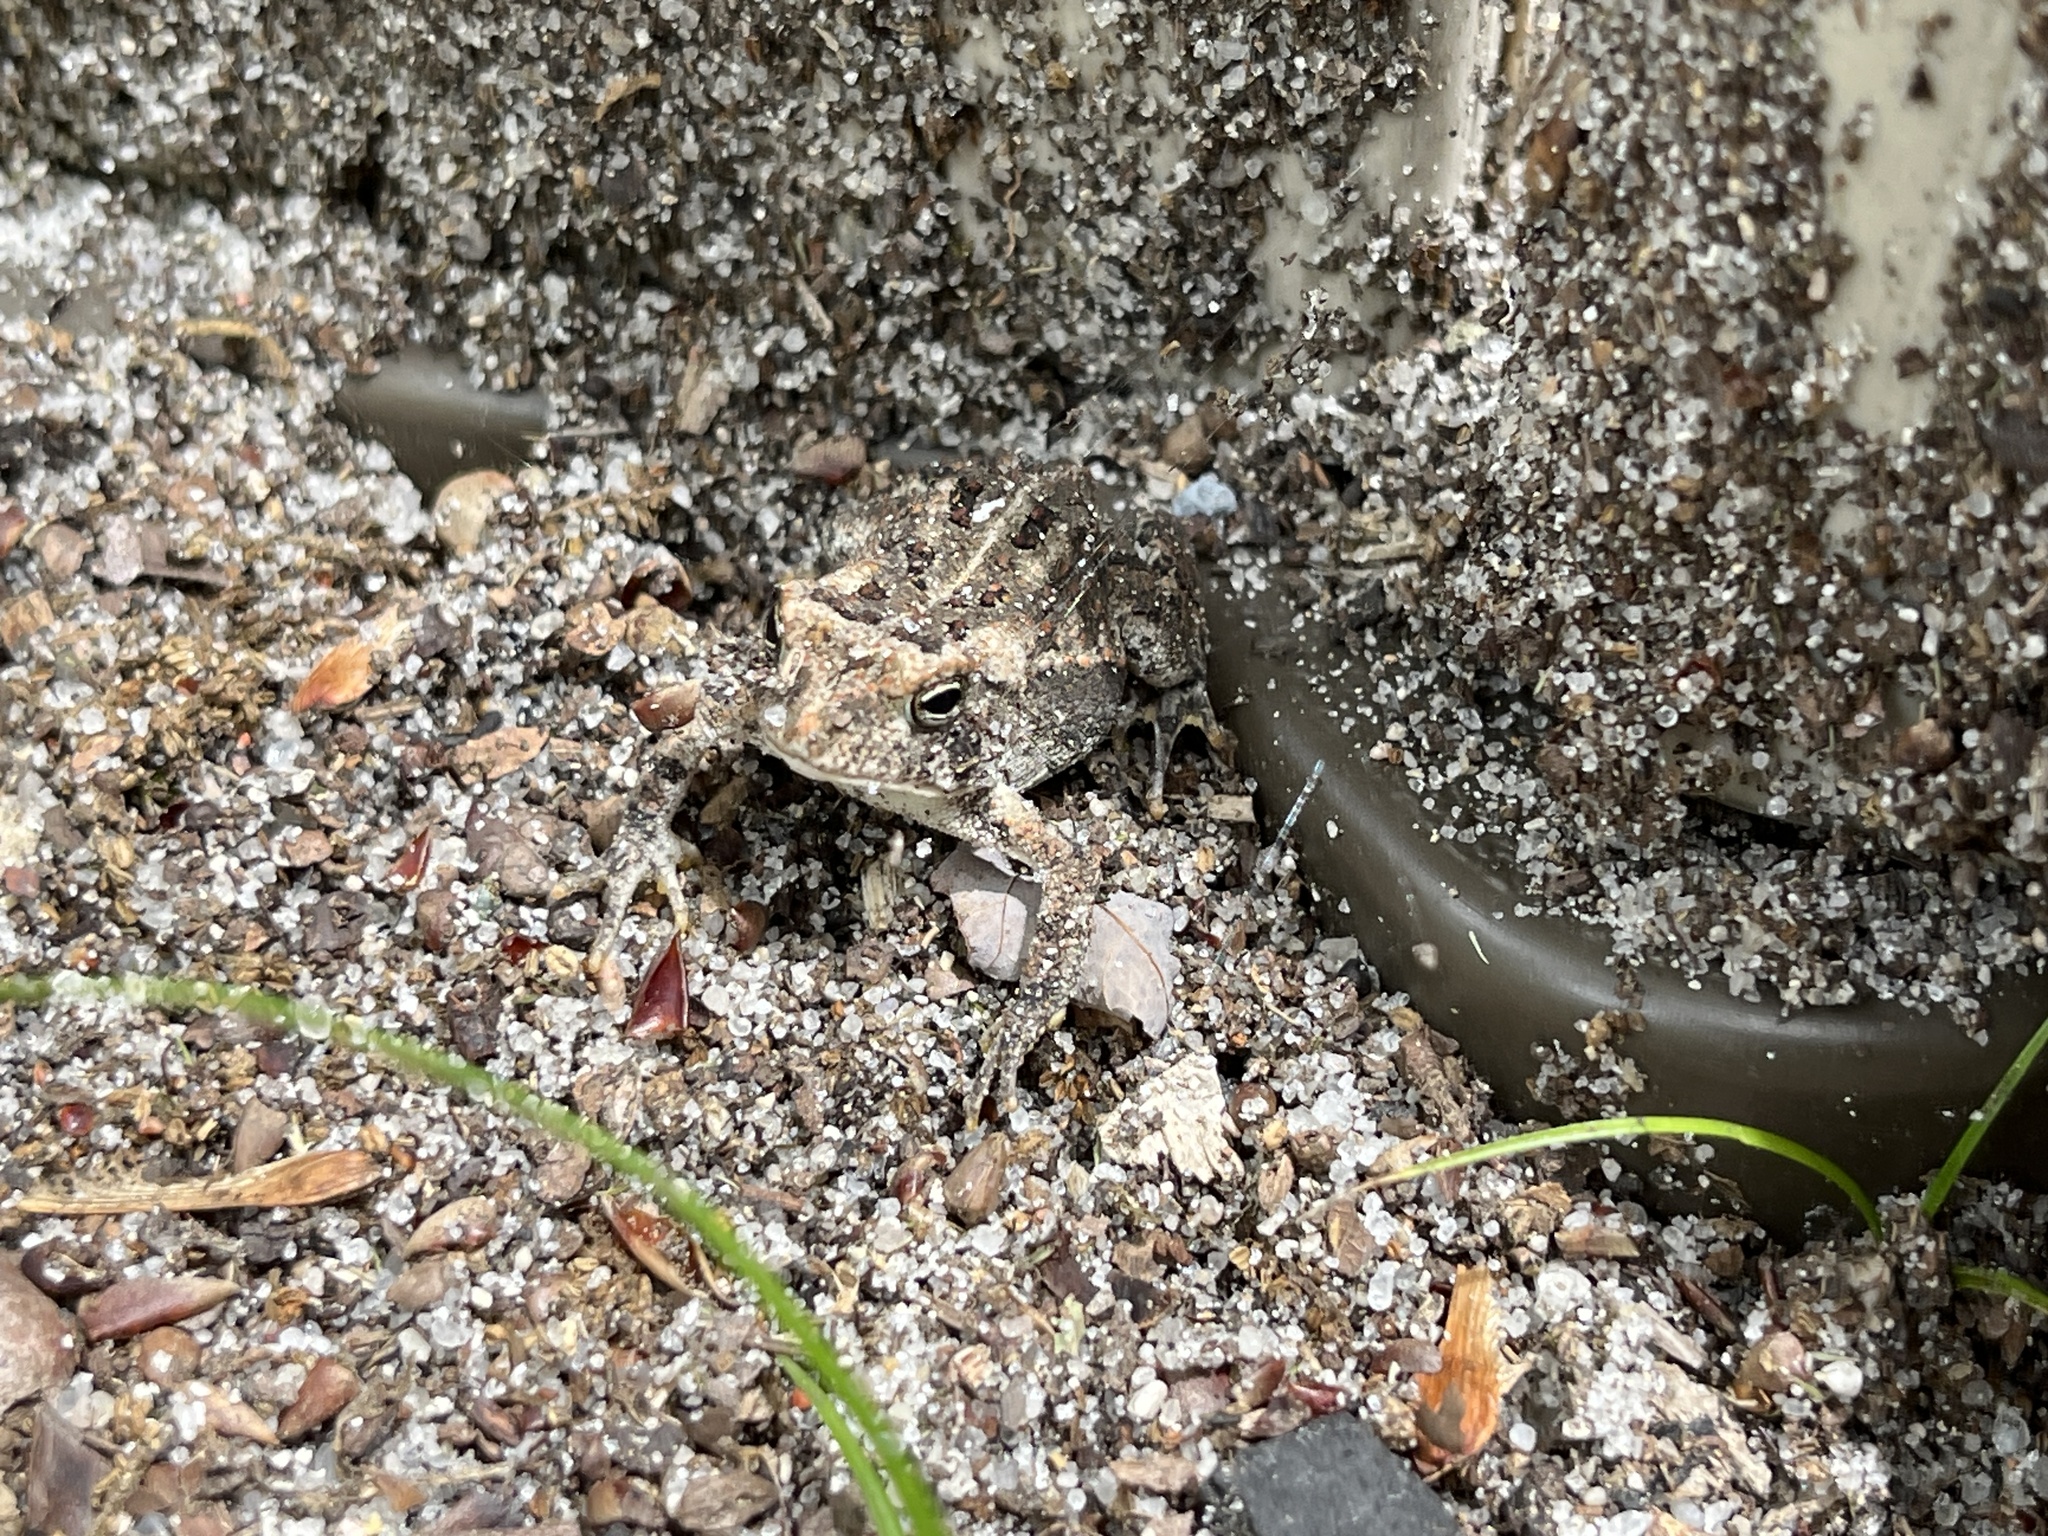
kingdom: Animalia
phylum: Chordata
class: Amphibia
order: Anura
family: Bufonidae
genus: Anaxyrus
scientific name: Anaxyrus fowleri
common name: Fowler's toad
